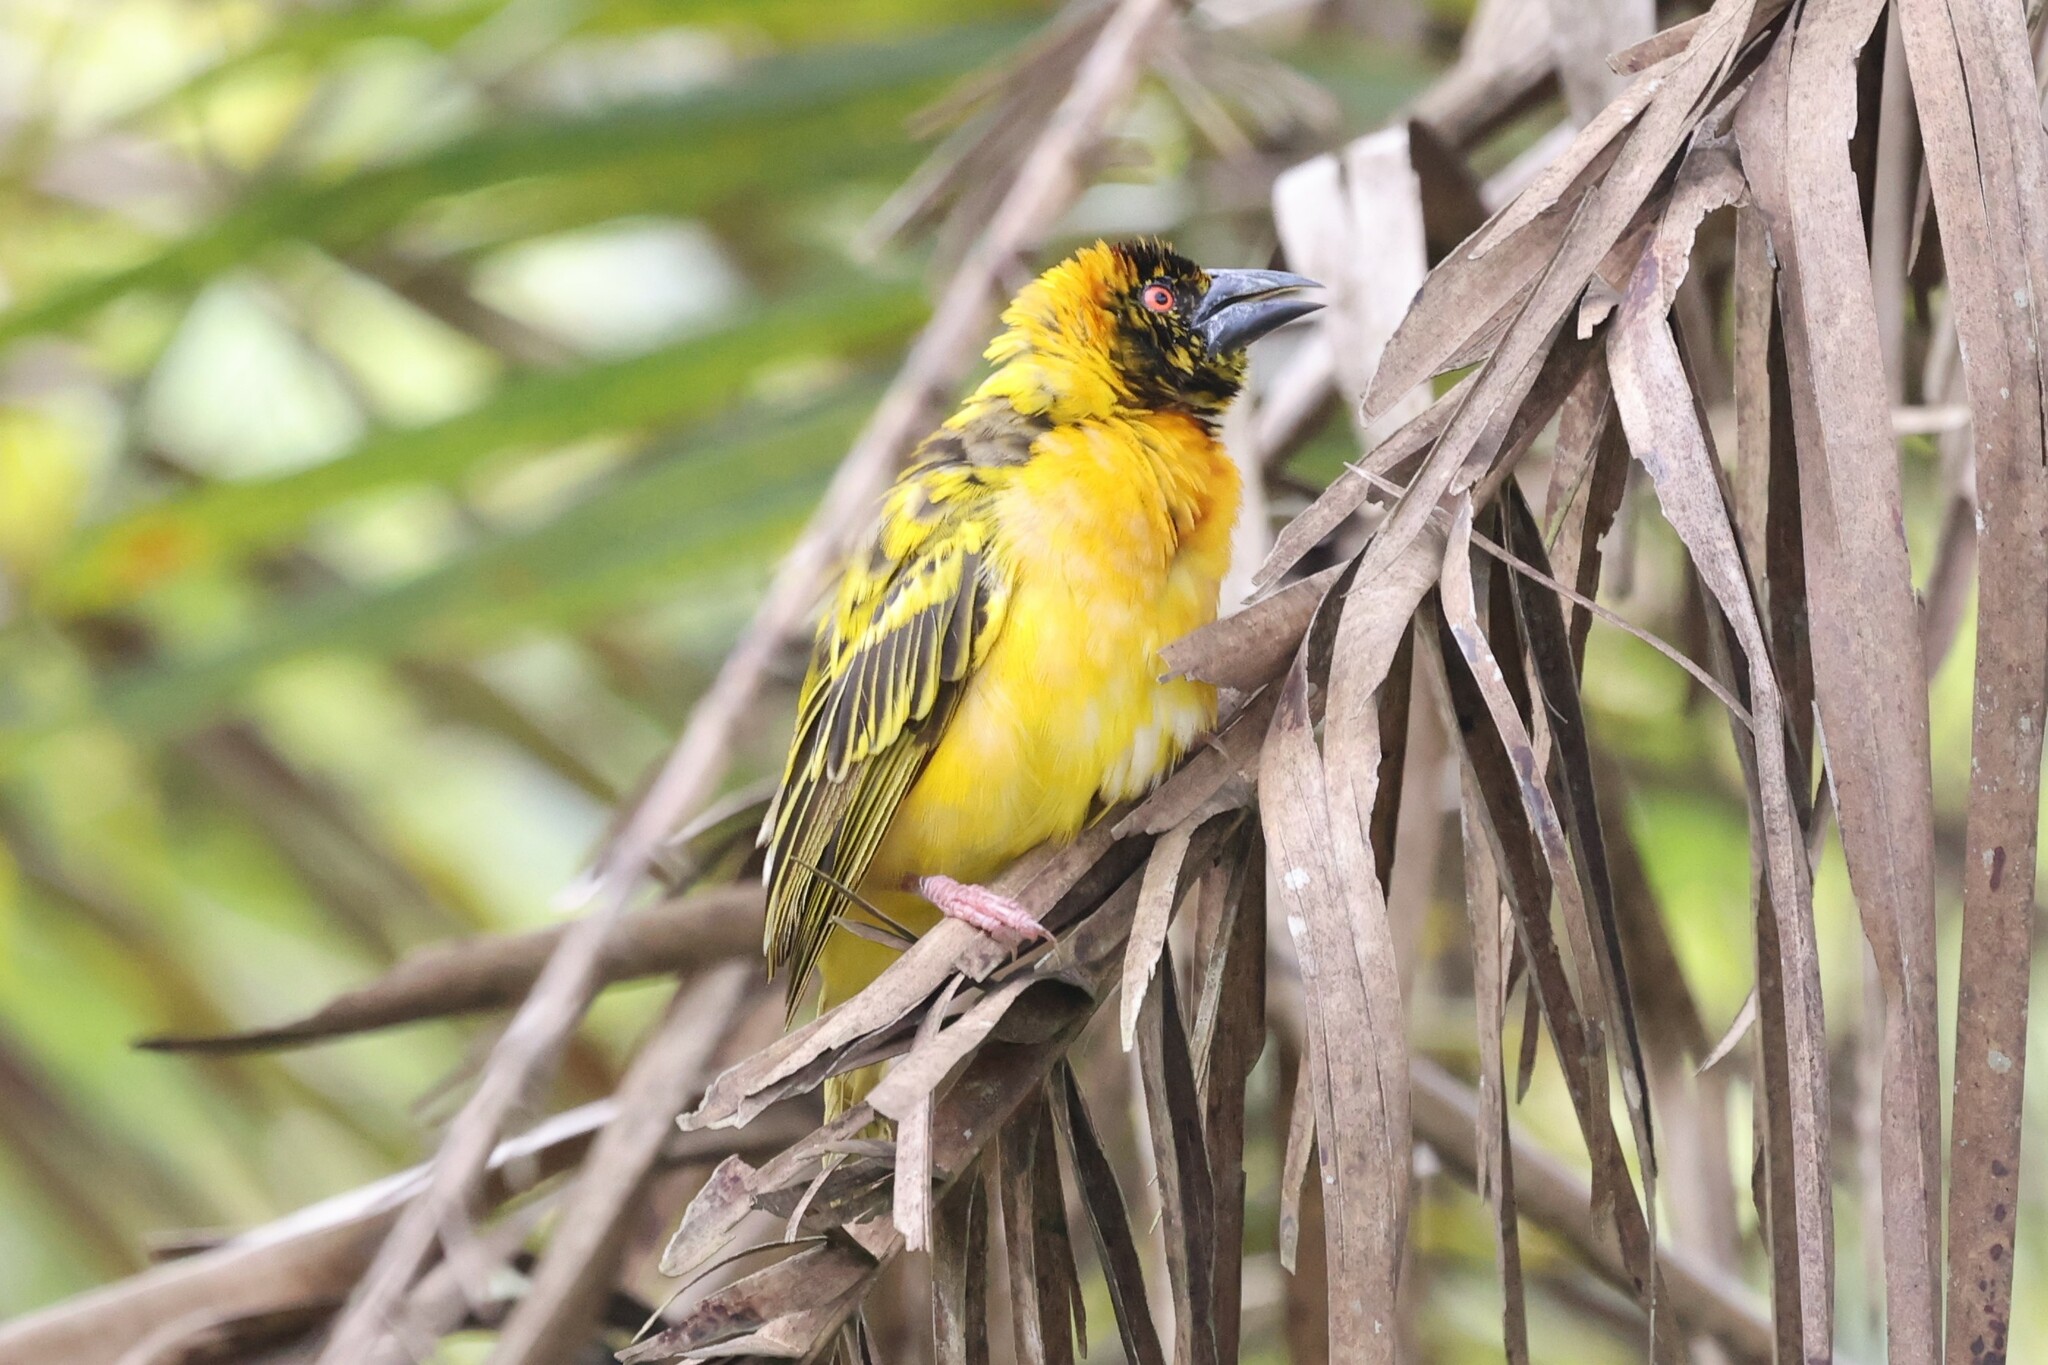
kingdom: Animalia
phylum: Chordata
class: Aves
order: Passeriformes
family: Ploceidae
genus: Ploceus
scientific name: Ploceus cucullatus
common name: Village weaver
